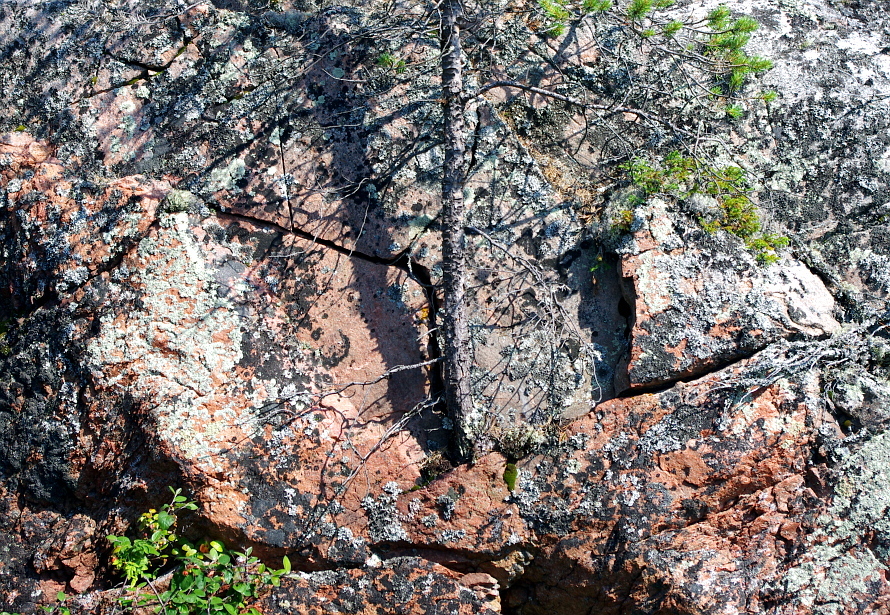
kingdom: Plantae
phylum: Tracheophyta
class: Pinopsida
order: Pinales
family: Pinaceae
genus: Pinus
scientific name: Pinus sylvestris
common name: Scots pine
